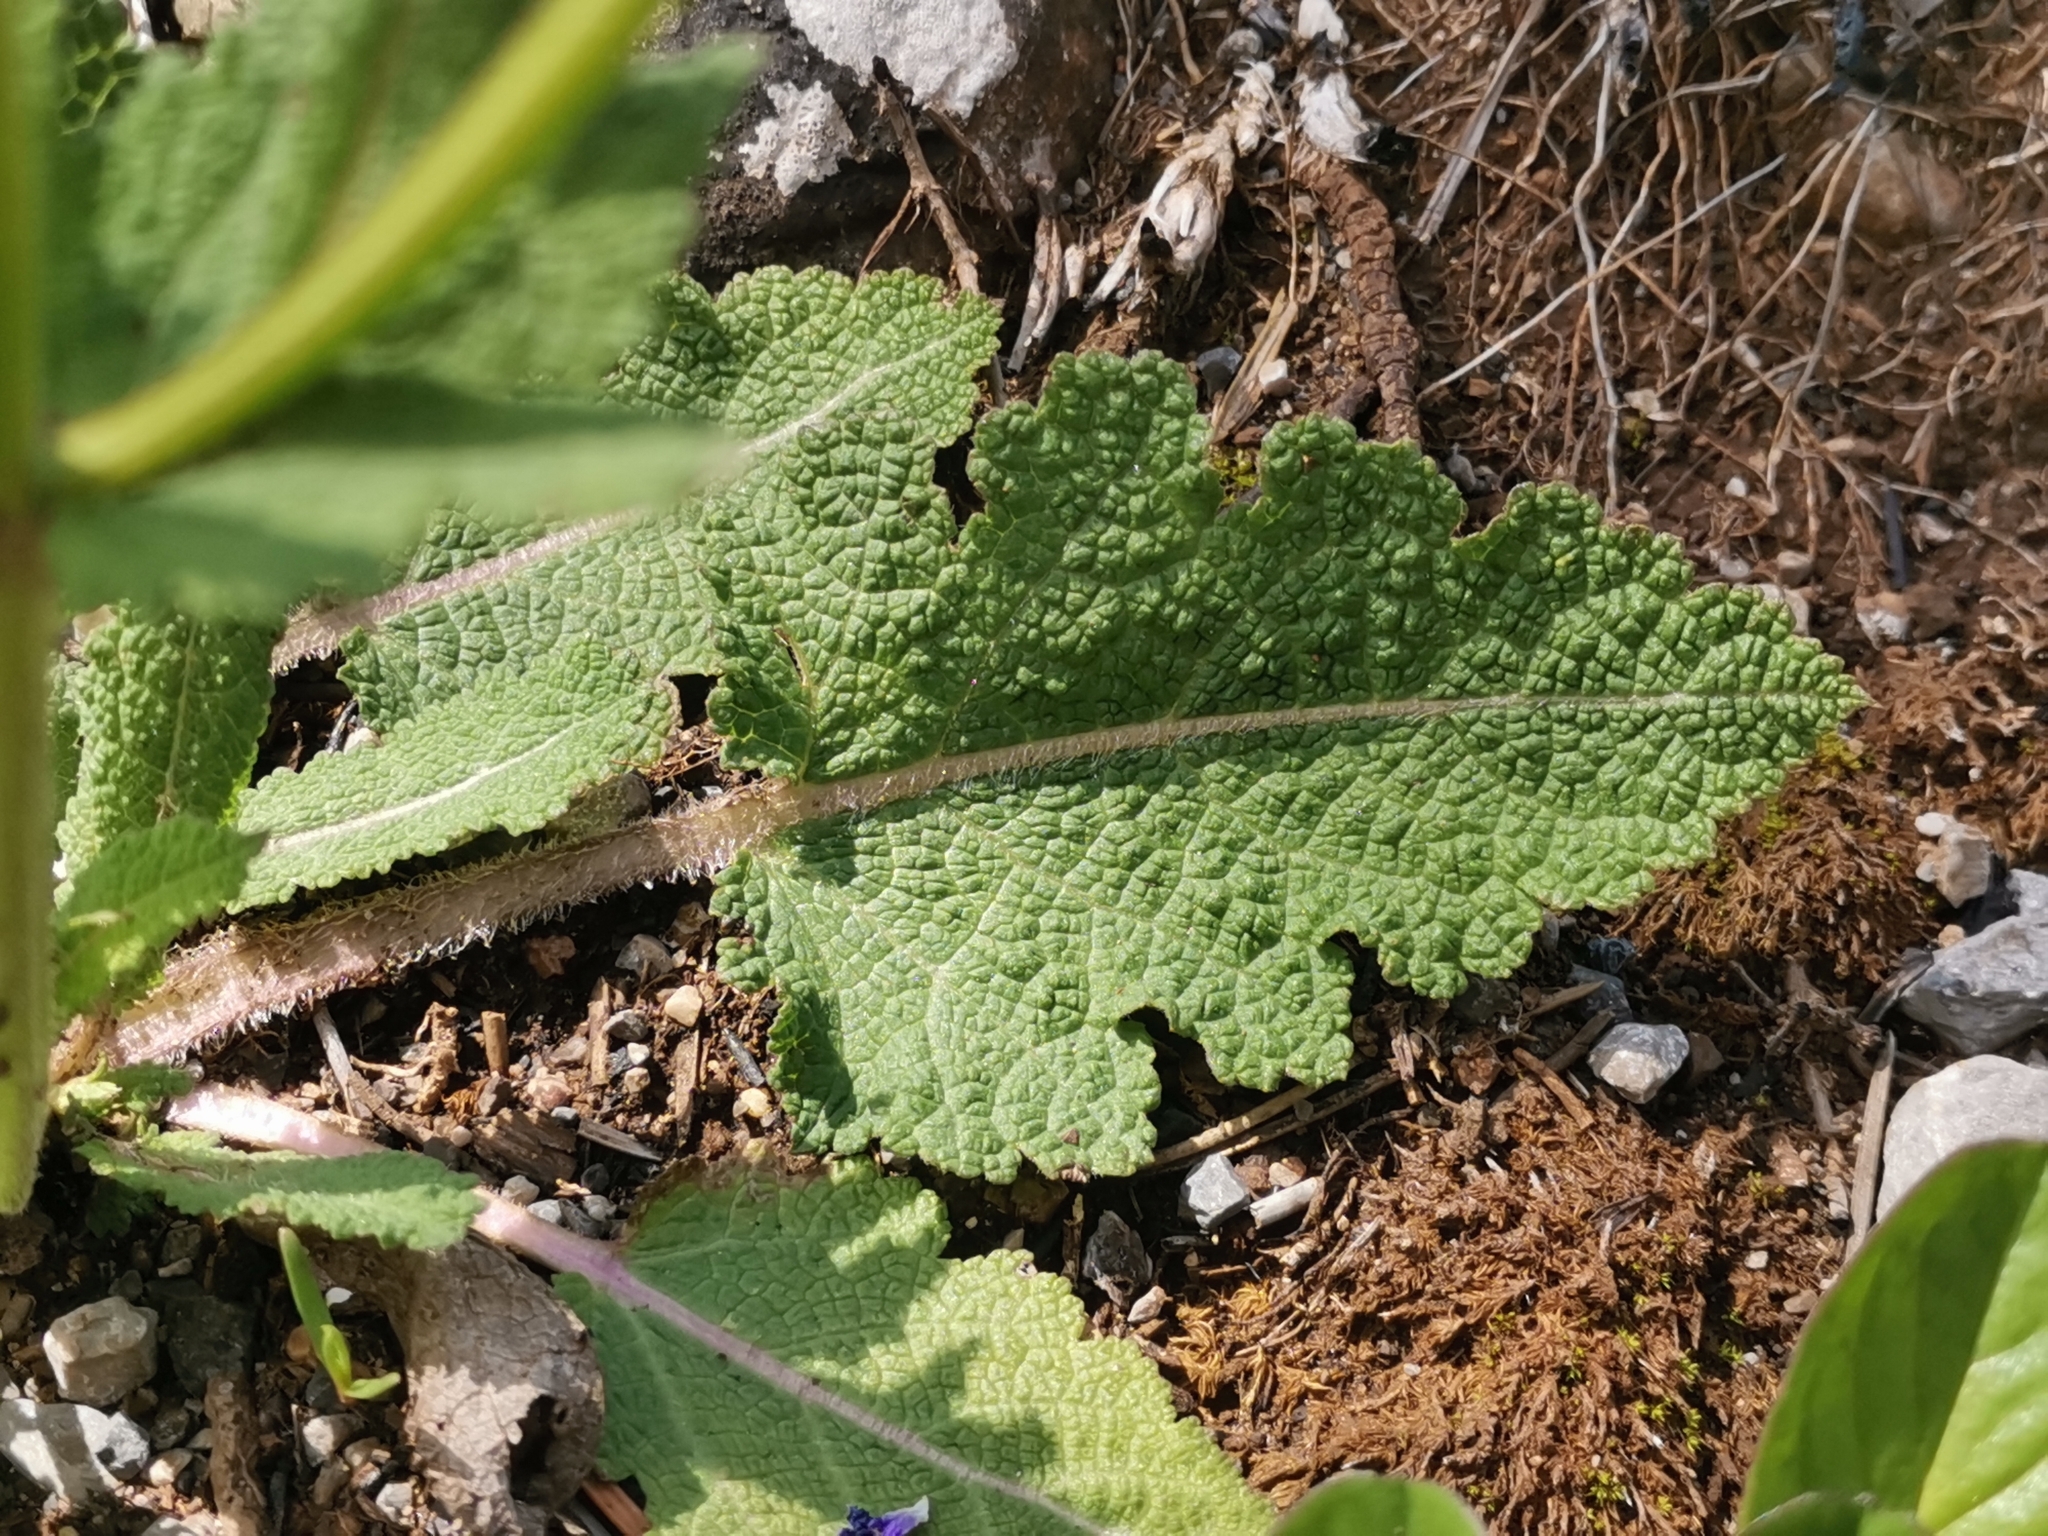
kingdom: Plantae
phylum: Tracheophyta
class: Magnoliopsida
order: Lamiales
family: Lamiaceae
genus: Salvia
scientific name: Salvia pratensis
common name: Meadow sage
